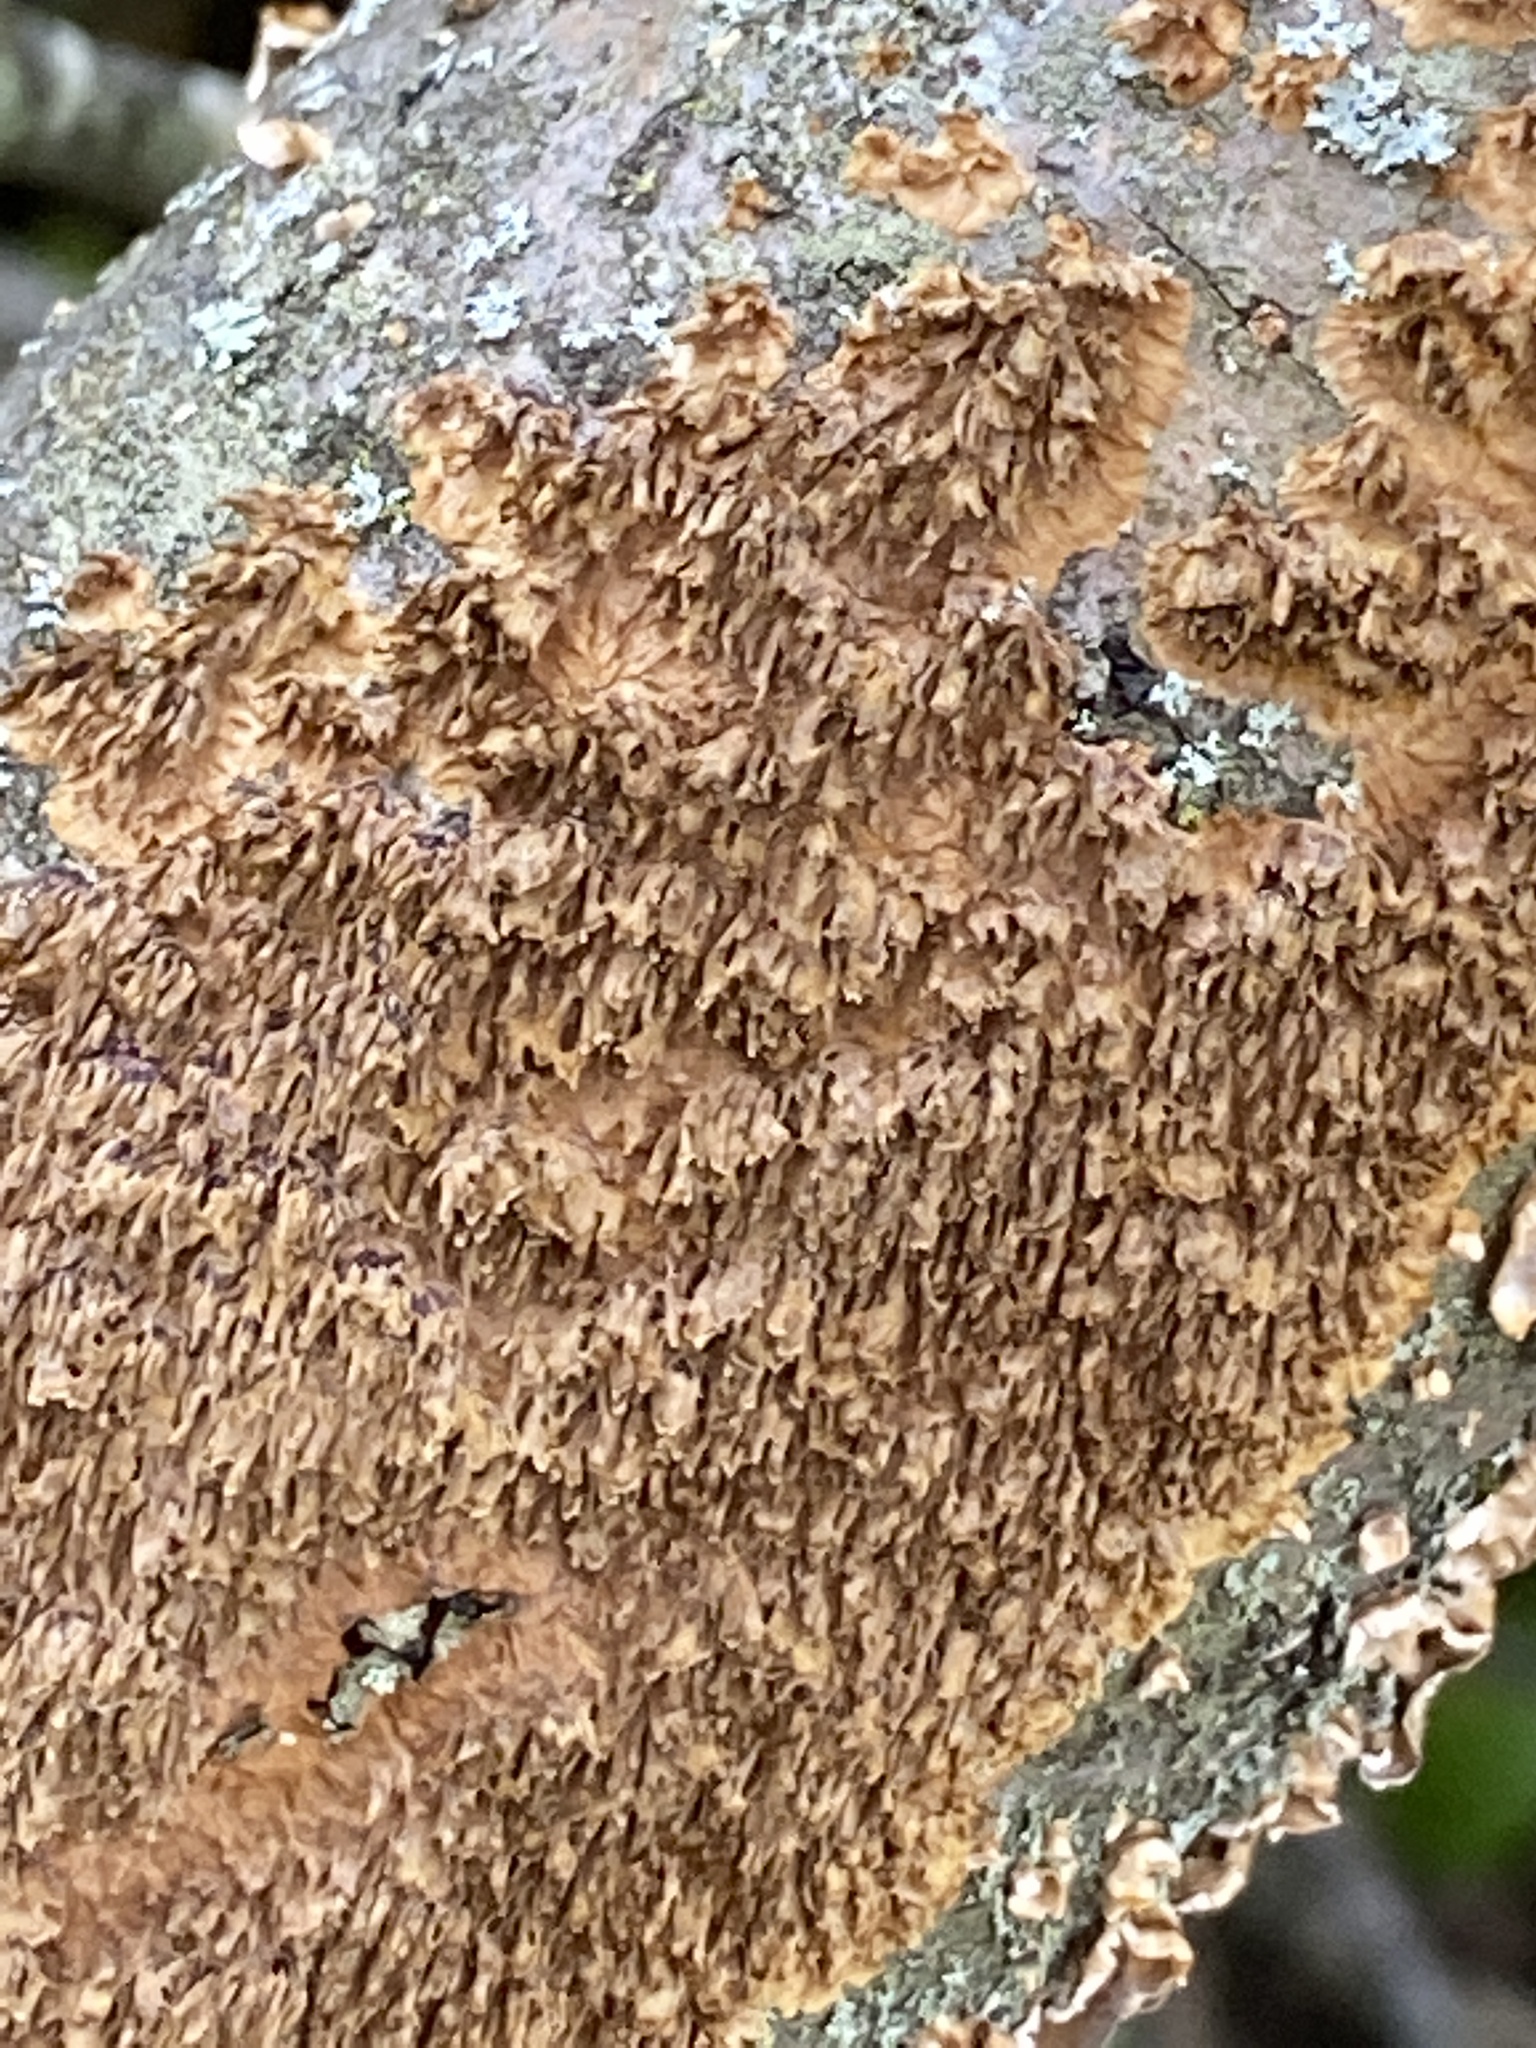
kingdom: Fungi
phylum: Basidiomycota
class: Agaricomycetes
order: Hymenochaetales
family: Hymenochaetaceae
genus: Hydnoporia
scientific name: Hydnoporia olivacea
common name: Brown-toothed crust fungus
